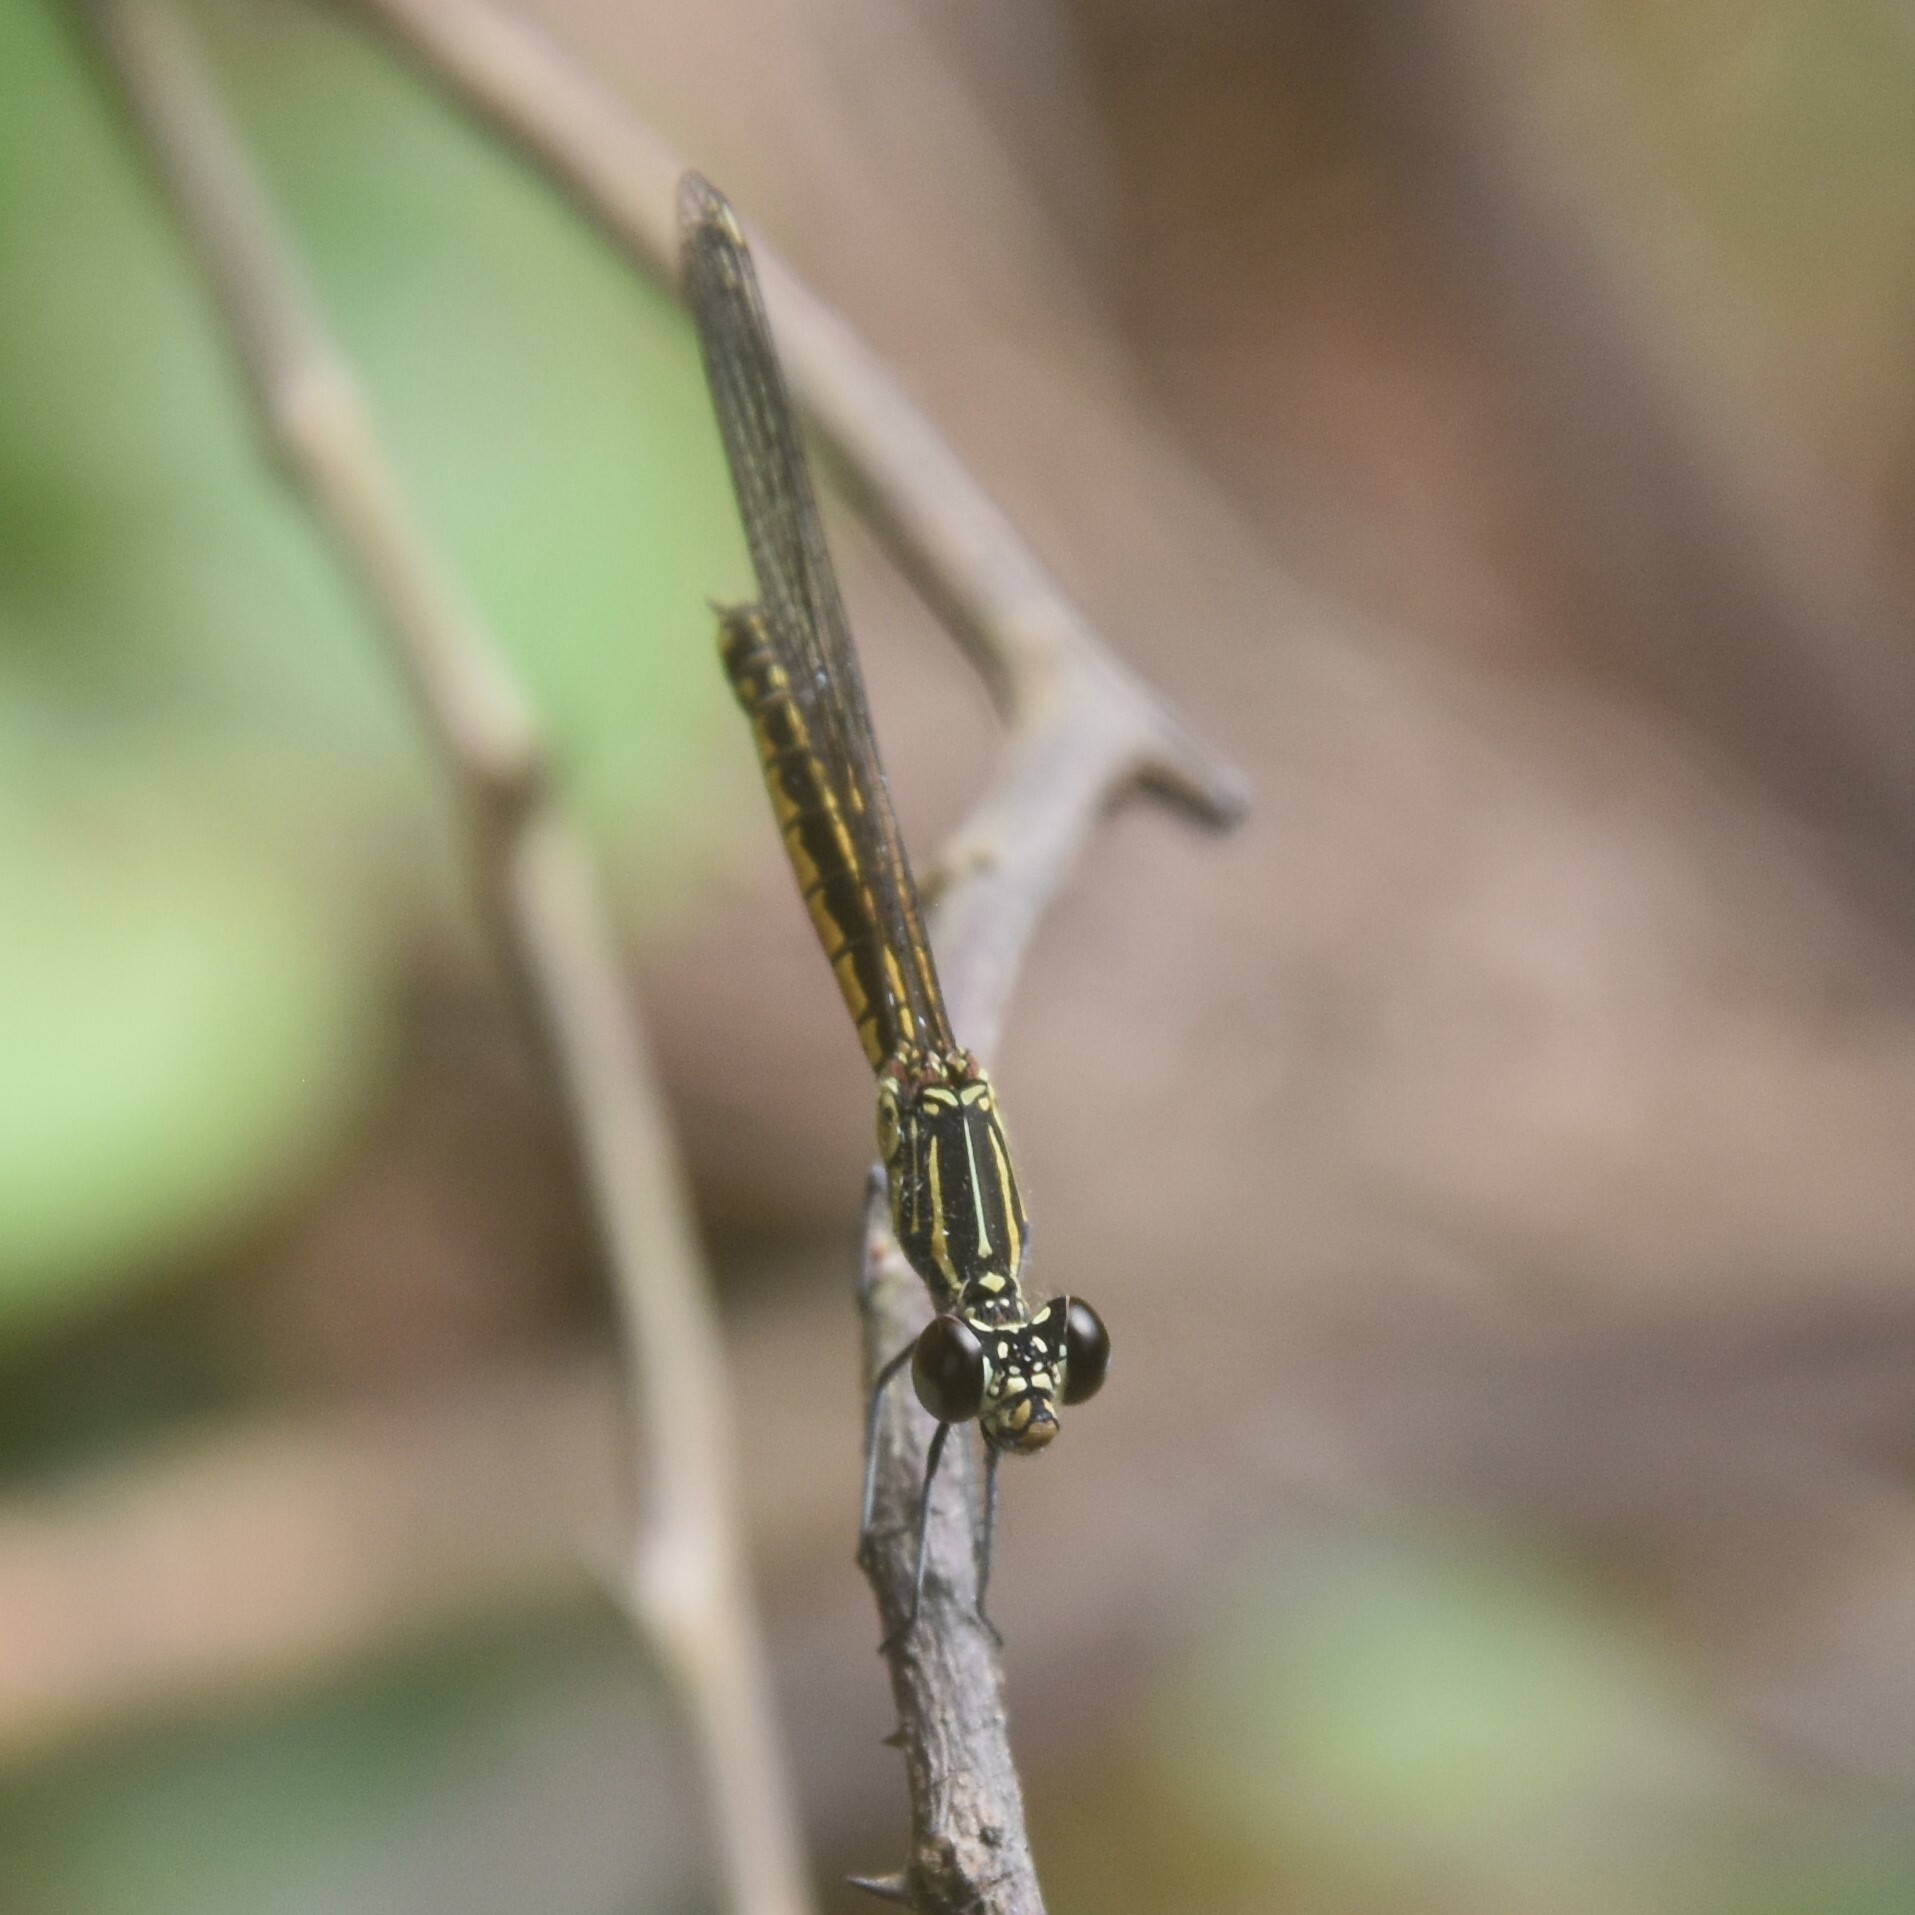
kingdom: Animalia
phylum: Arthropoda
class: Insecta
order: Odonata
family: Chlorocyphidae
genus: Libellago
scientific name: Libellago indica
